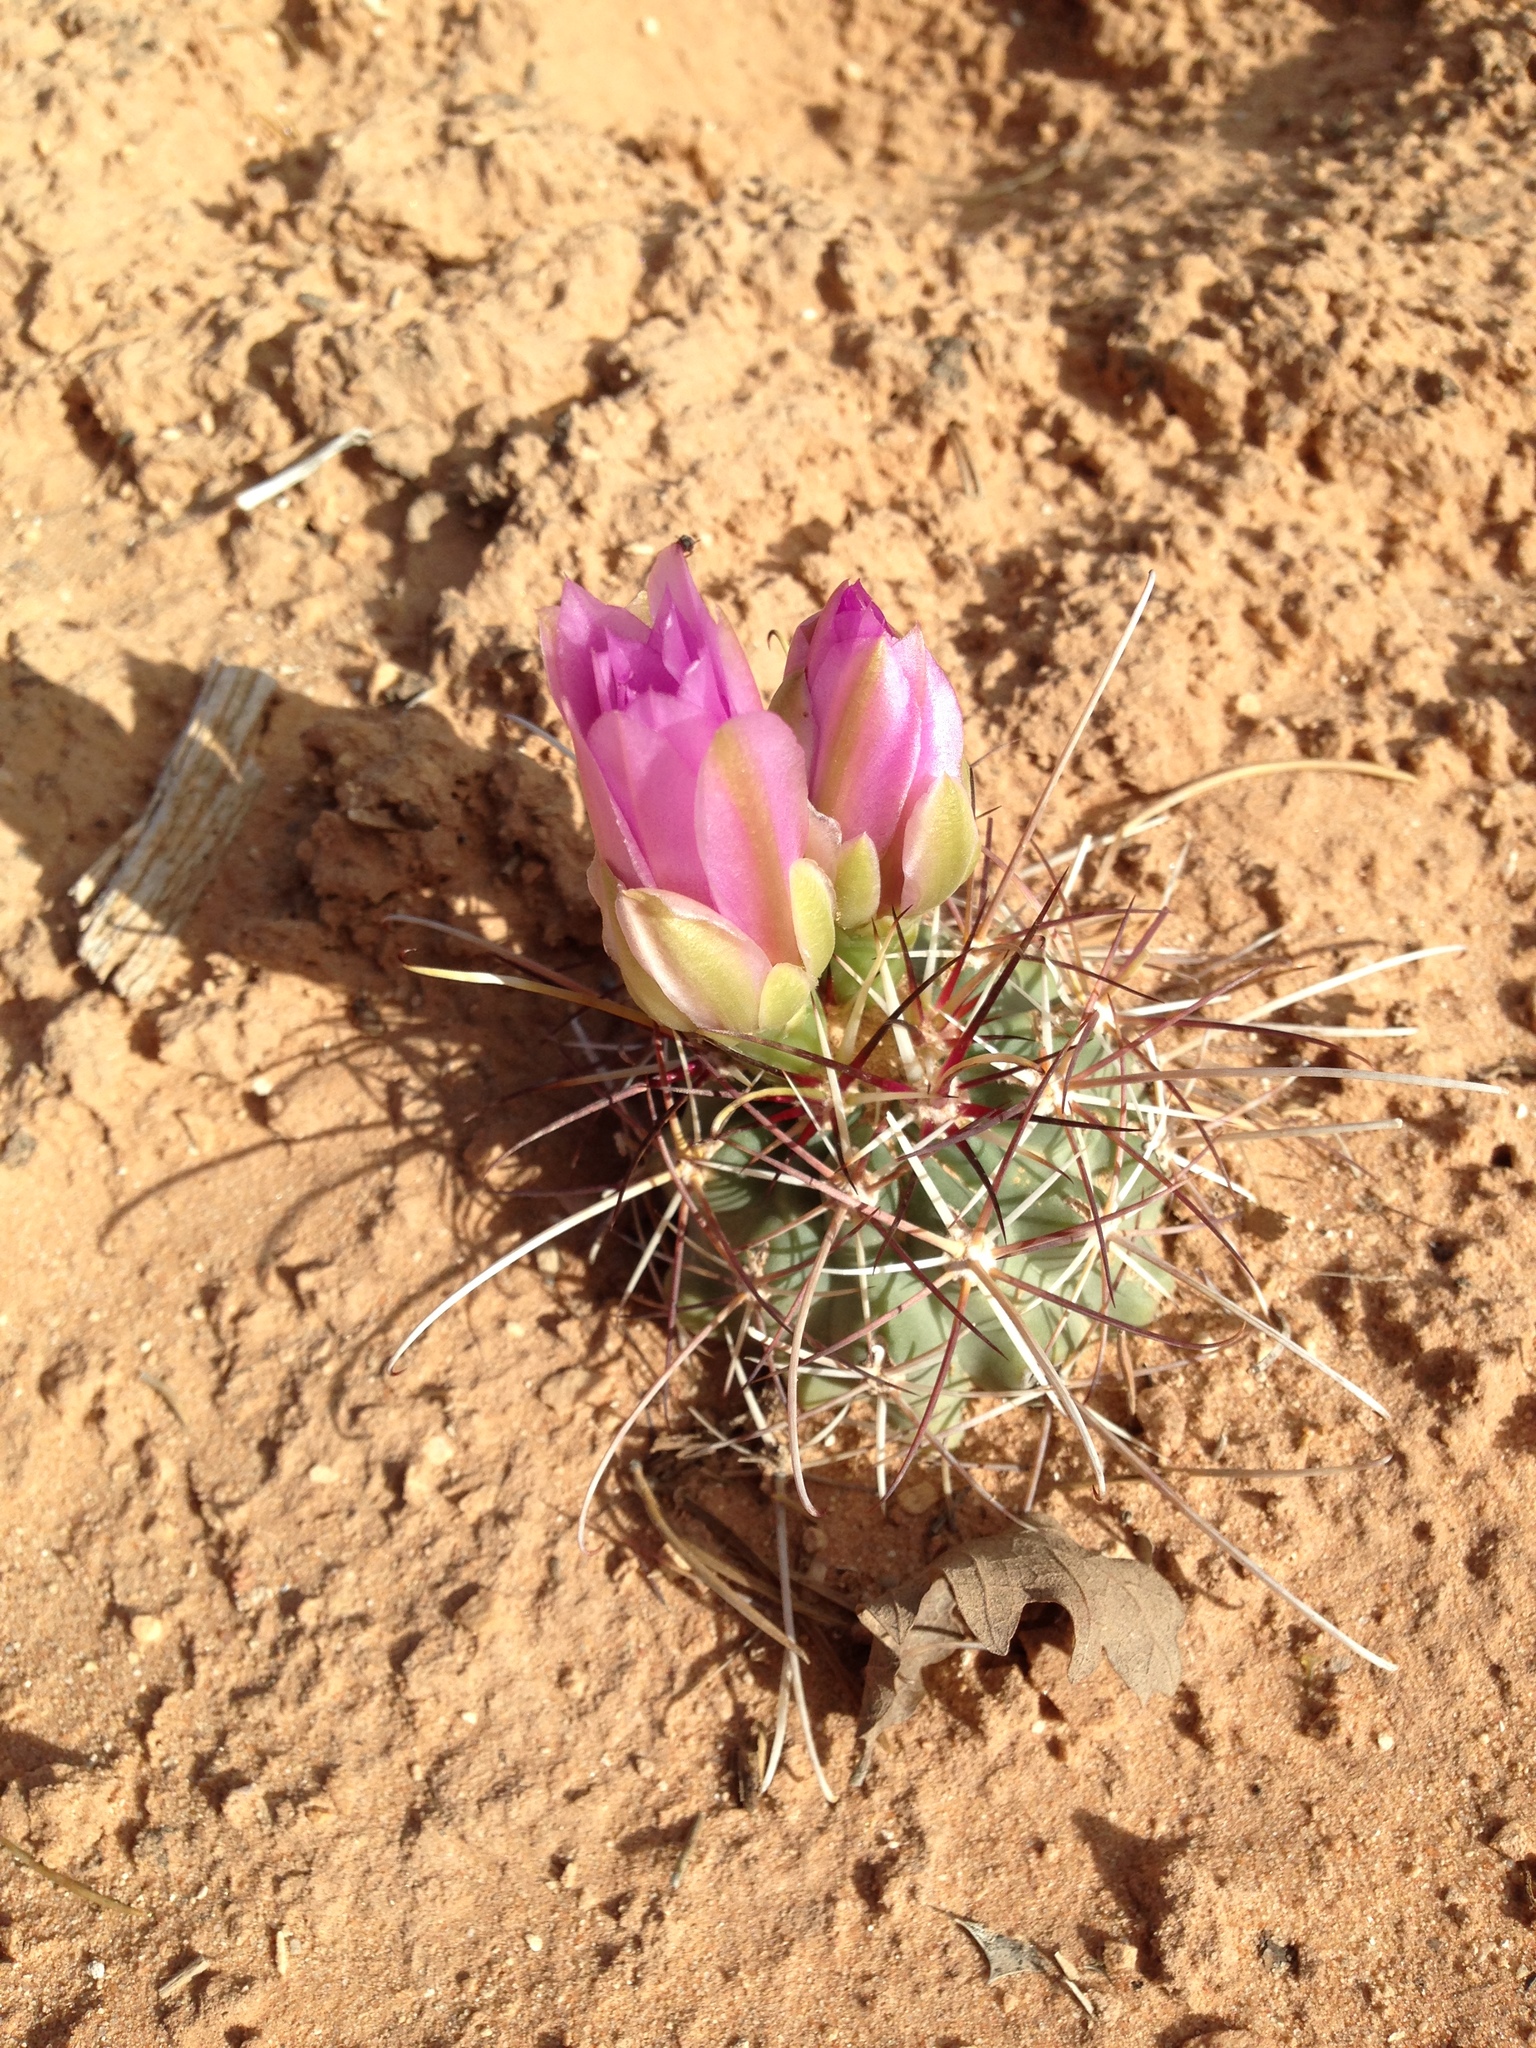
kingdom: Plantae
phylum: Tracheophyta
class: Magnoliopsida
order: Caryophyllales
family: Cactaceae
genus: Sclerocactus
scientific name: Sclerocactus parviflorus
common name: Small-flower fishhook cactus
